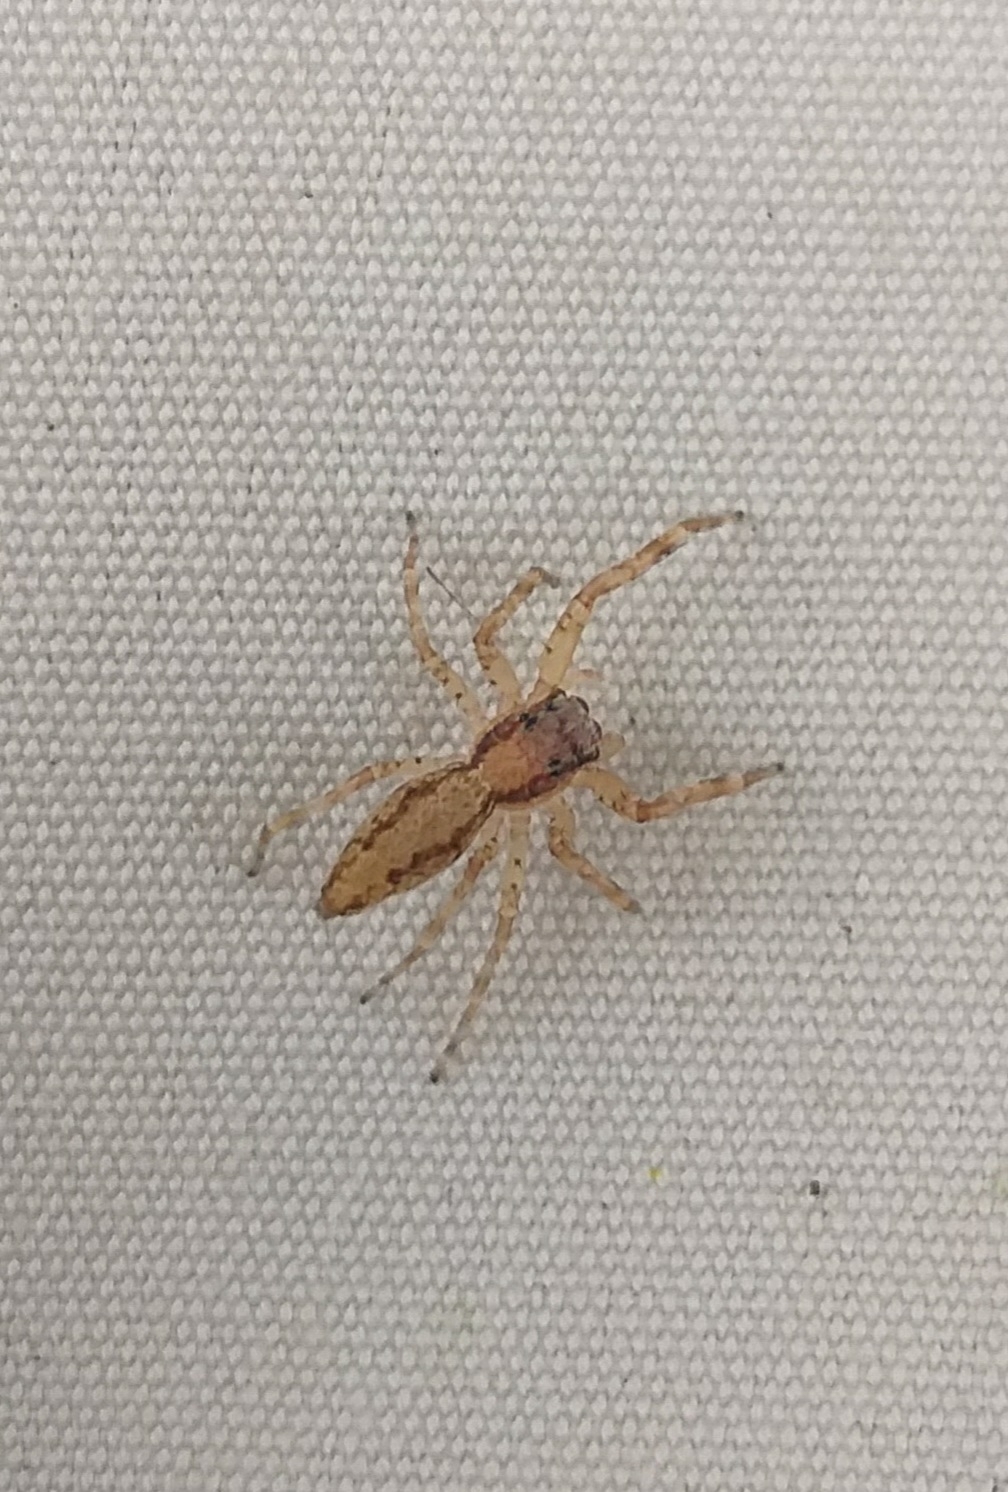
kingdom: Animalia
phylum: Arthropoda
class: Arachnida
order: Araneae
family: Salticidae
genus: Helpis
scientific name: Helpis minitabunda
